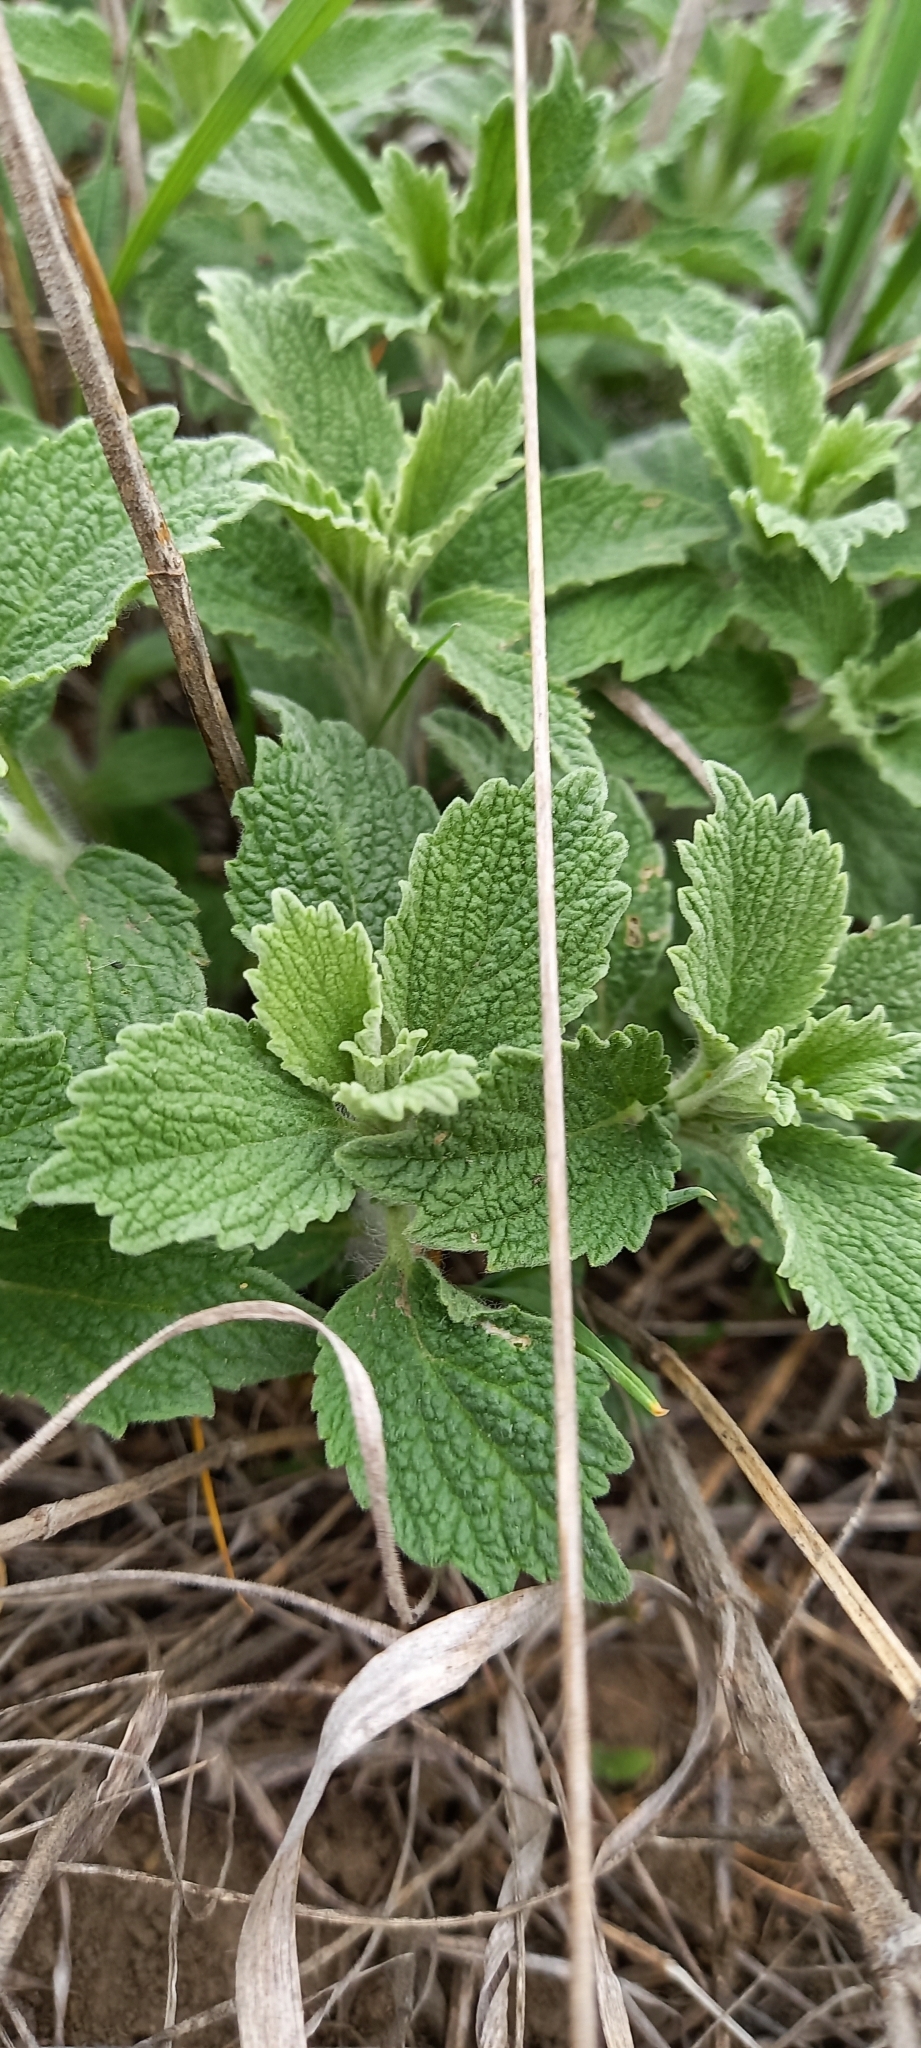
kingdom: Plantae
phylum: Tracheophyta
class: Magnoliopsida
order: Lamiales
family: Lamiaceae
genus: Marrubium
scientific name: Marrubium peregrinum
